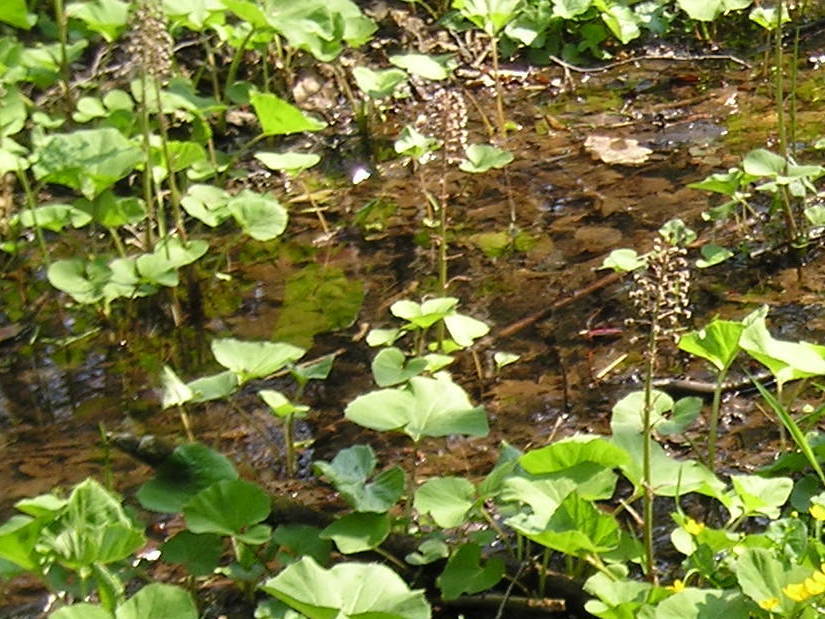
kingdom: Plantae
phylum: Tracheophyta
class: Magnoliopsida
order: Asterales
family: Asteraceae
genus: Petasites
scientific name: Petasites hybridus
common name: Butterbur
